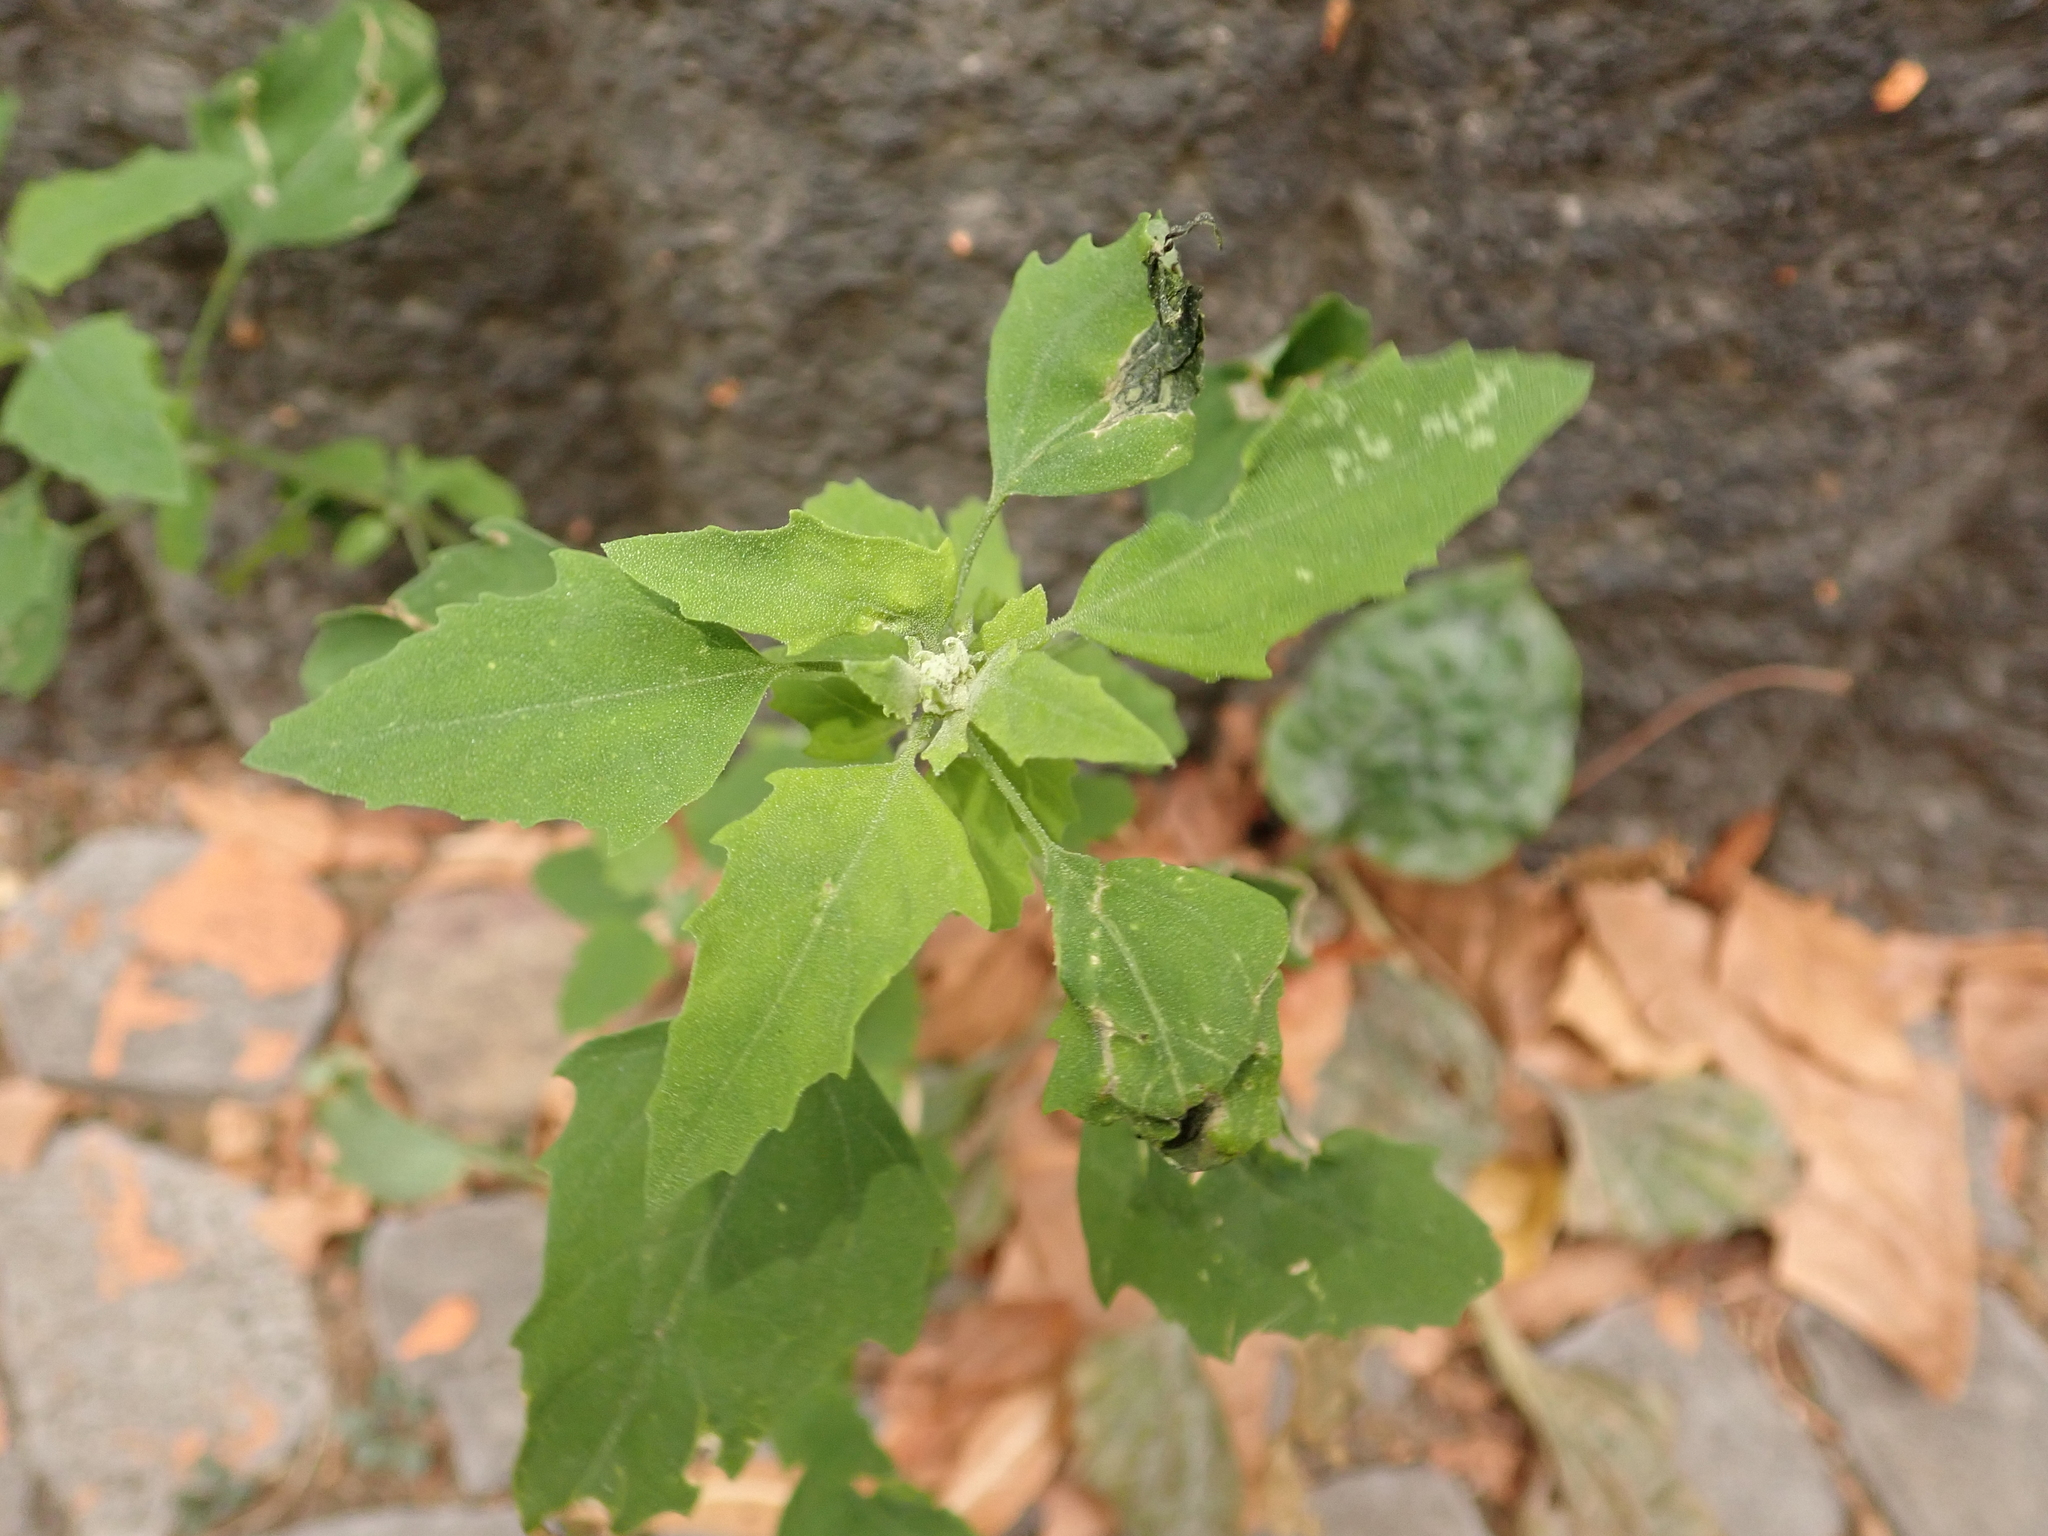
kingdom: Plantae
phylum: Tracheophyta
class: Magnoliopsida
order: Caryophyllales
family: Amaranthaceae
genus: Chenopodium
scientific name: Chenopodium album
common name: Fat-hen
